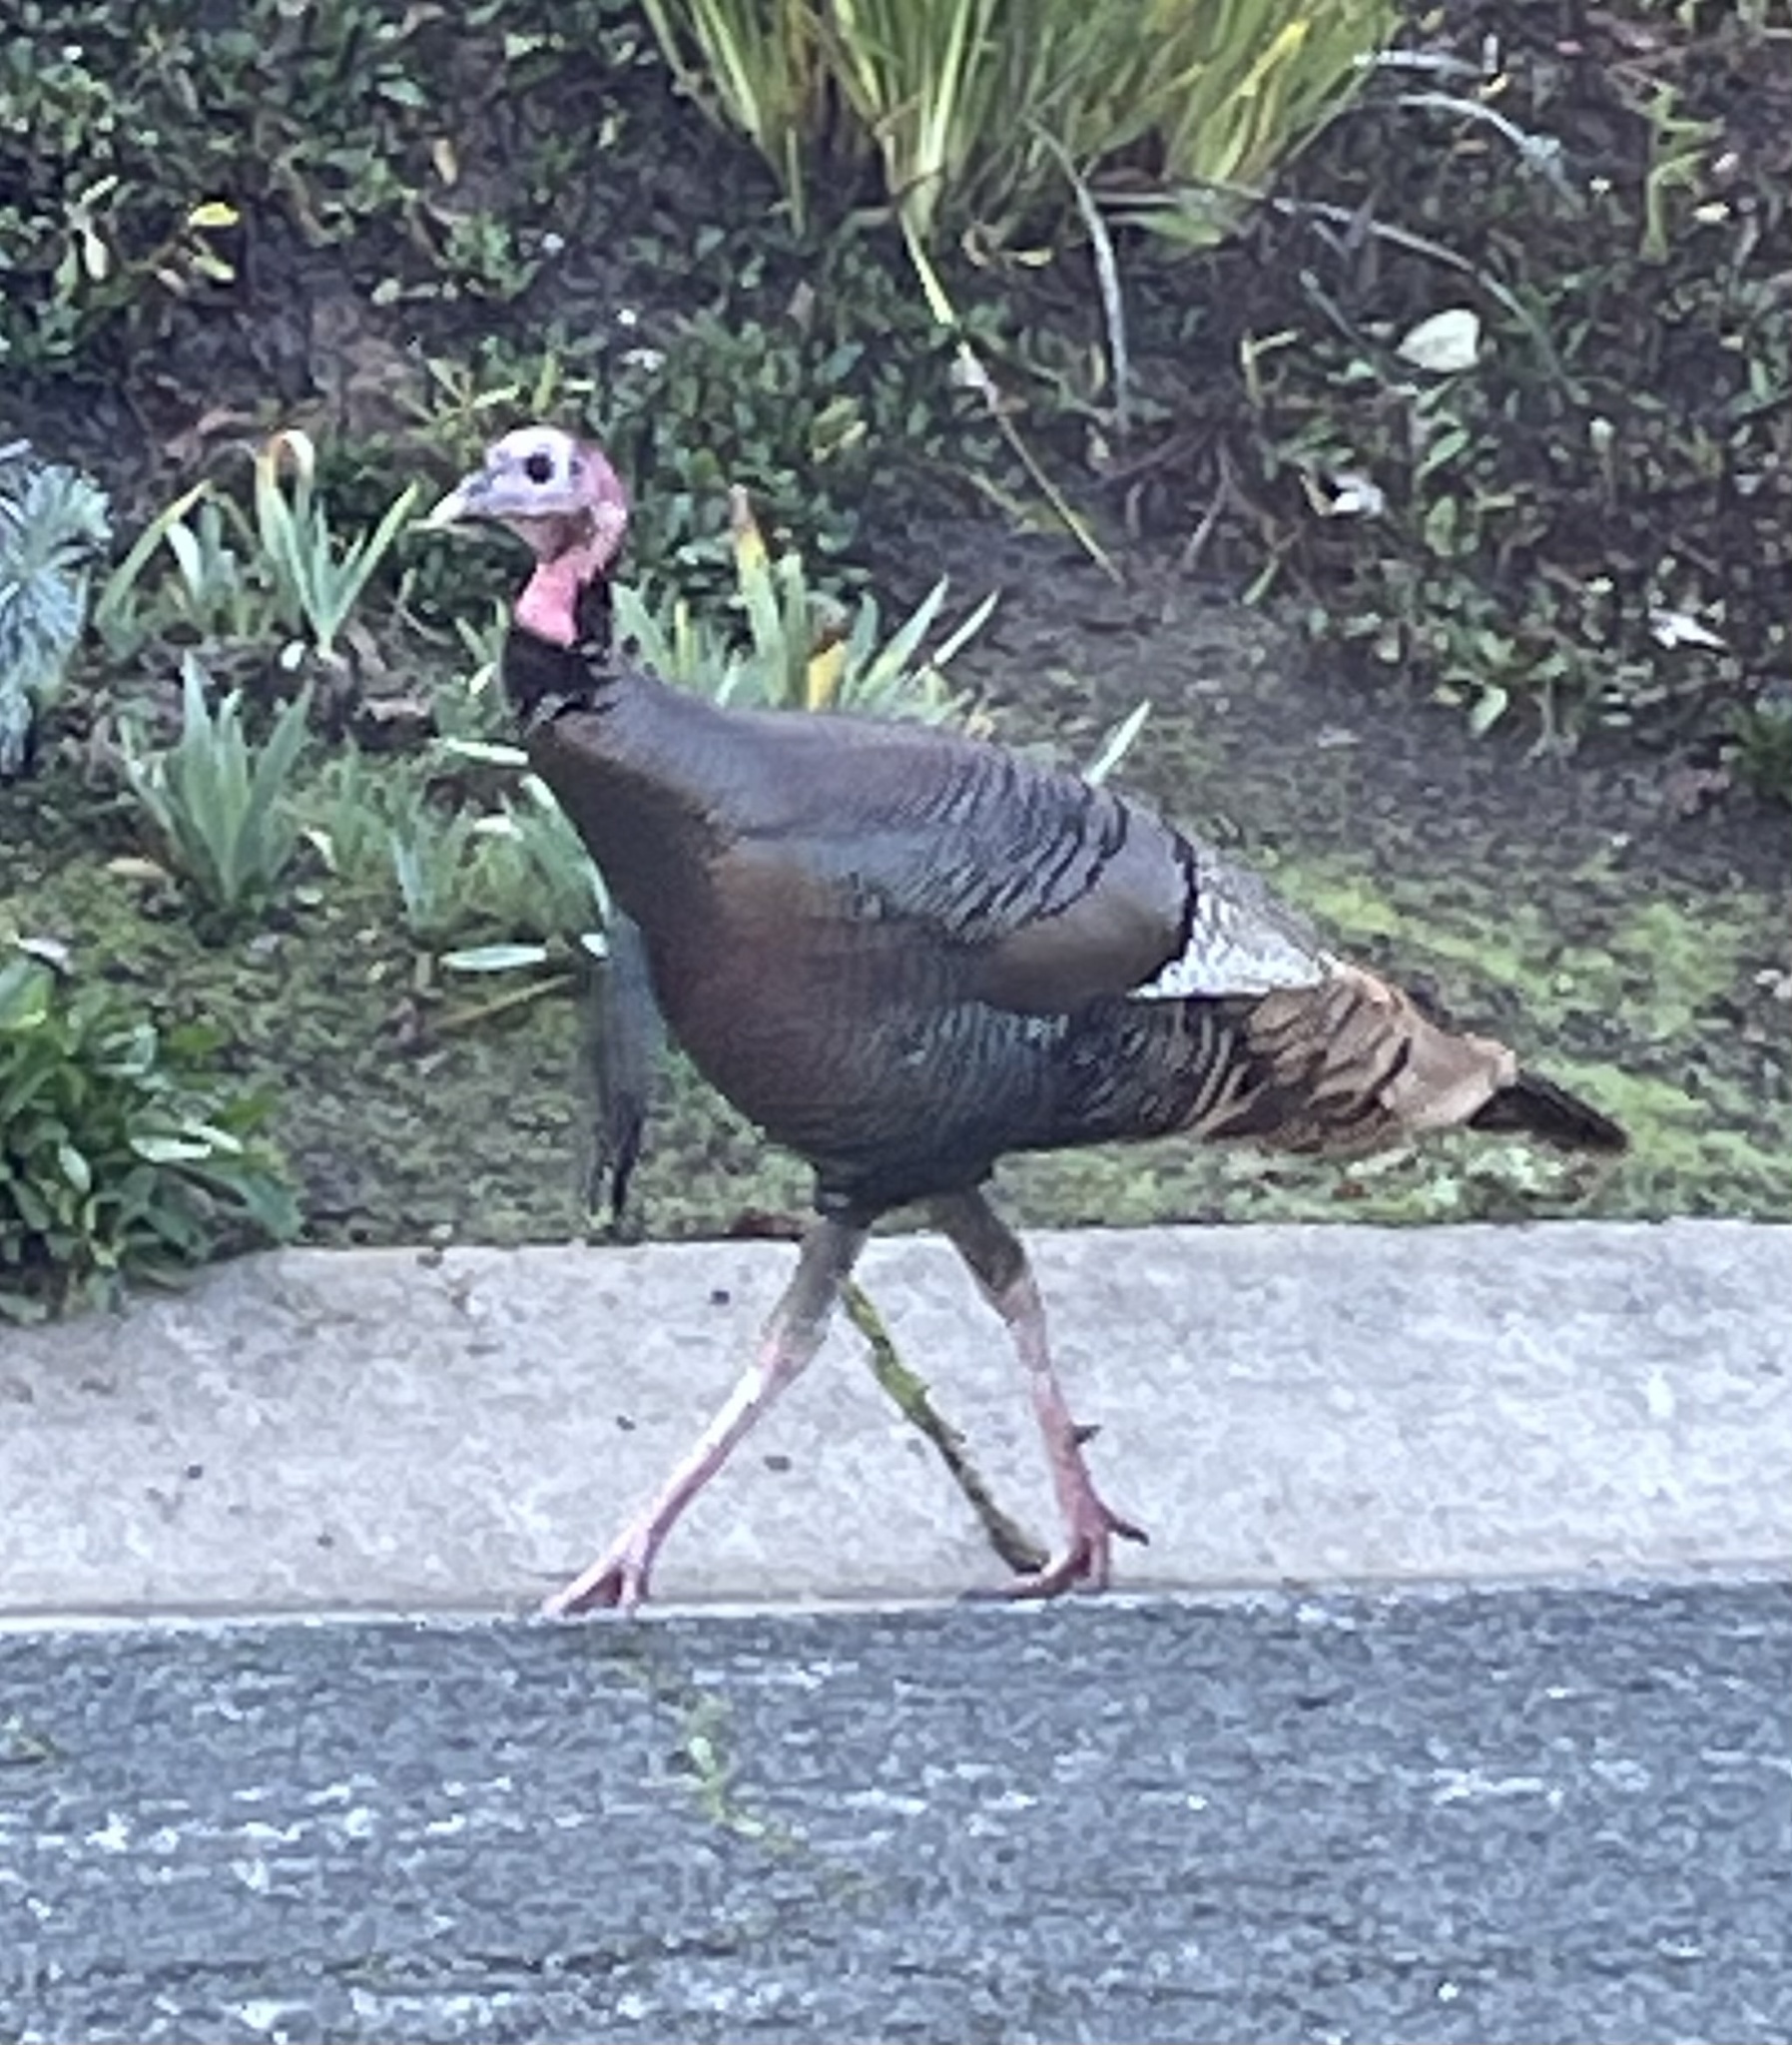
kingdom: Animalia
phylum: Chordata
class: Aves
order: Galliformes
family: Phasianidae
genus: Meleagris
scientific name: Meleagris gallopavo
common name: Wild turkey
